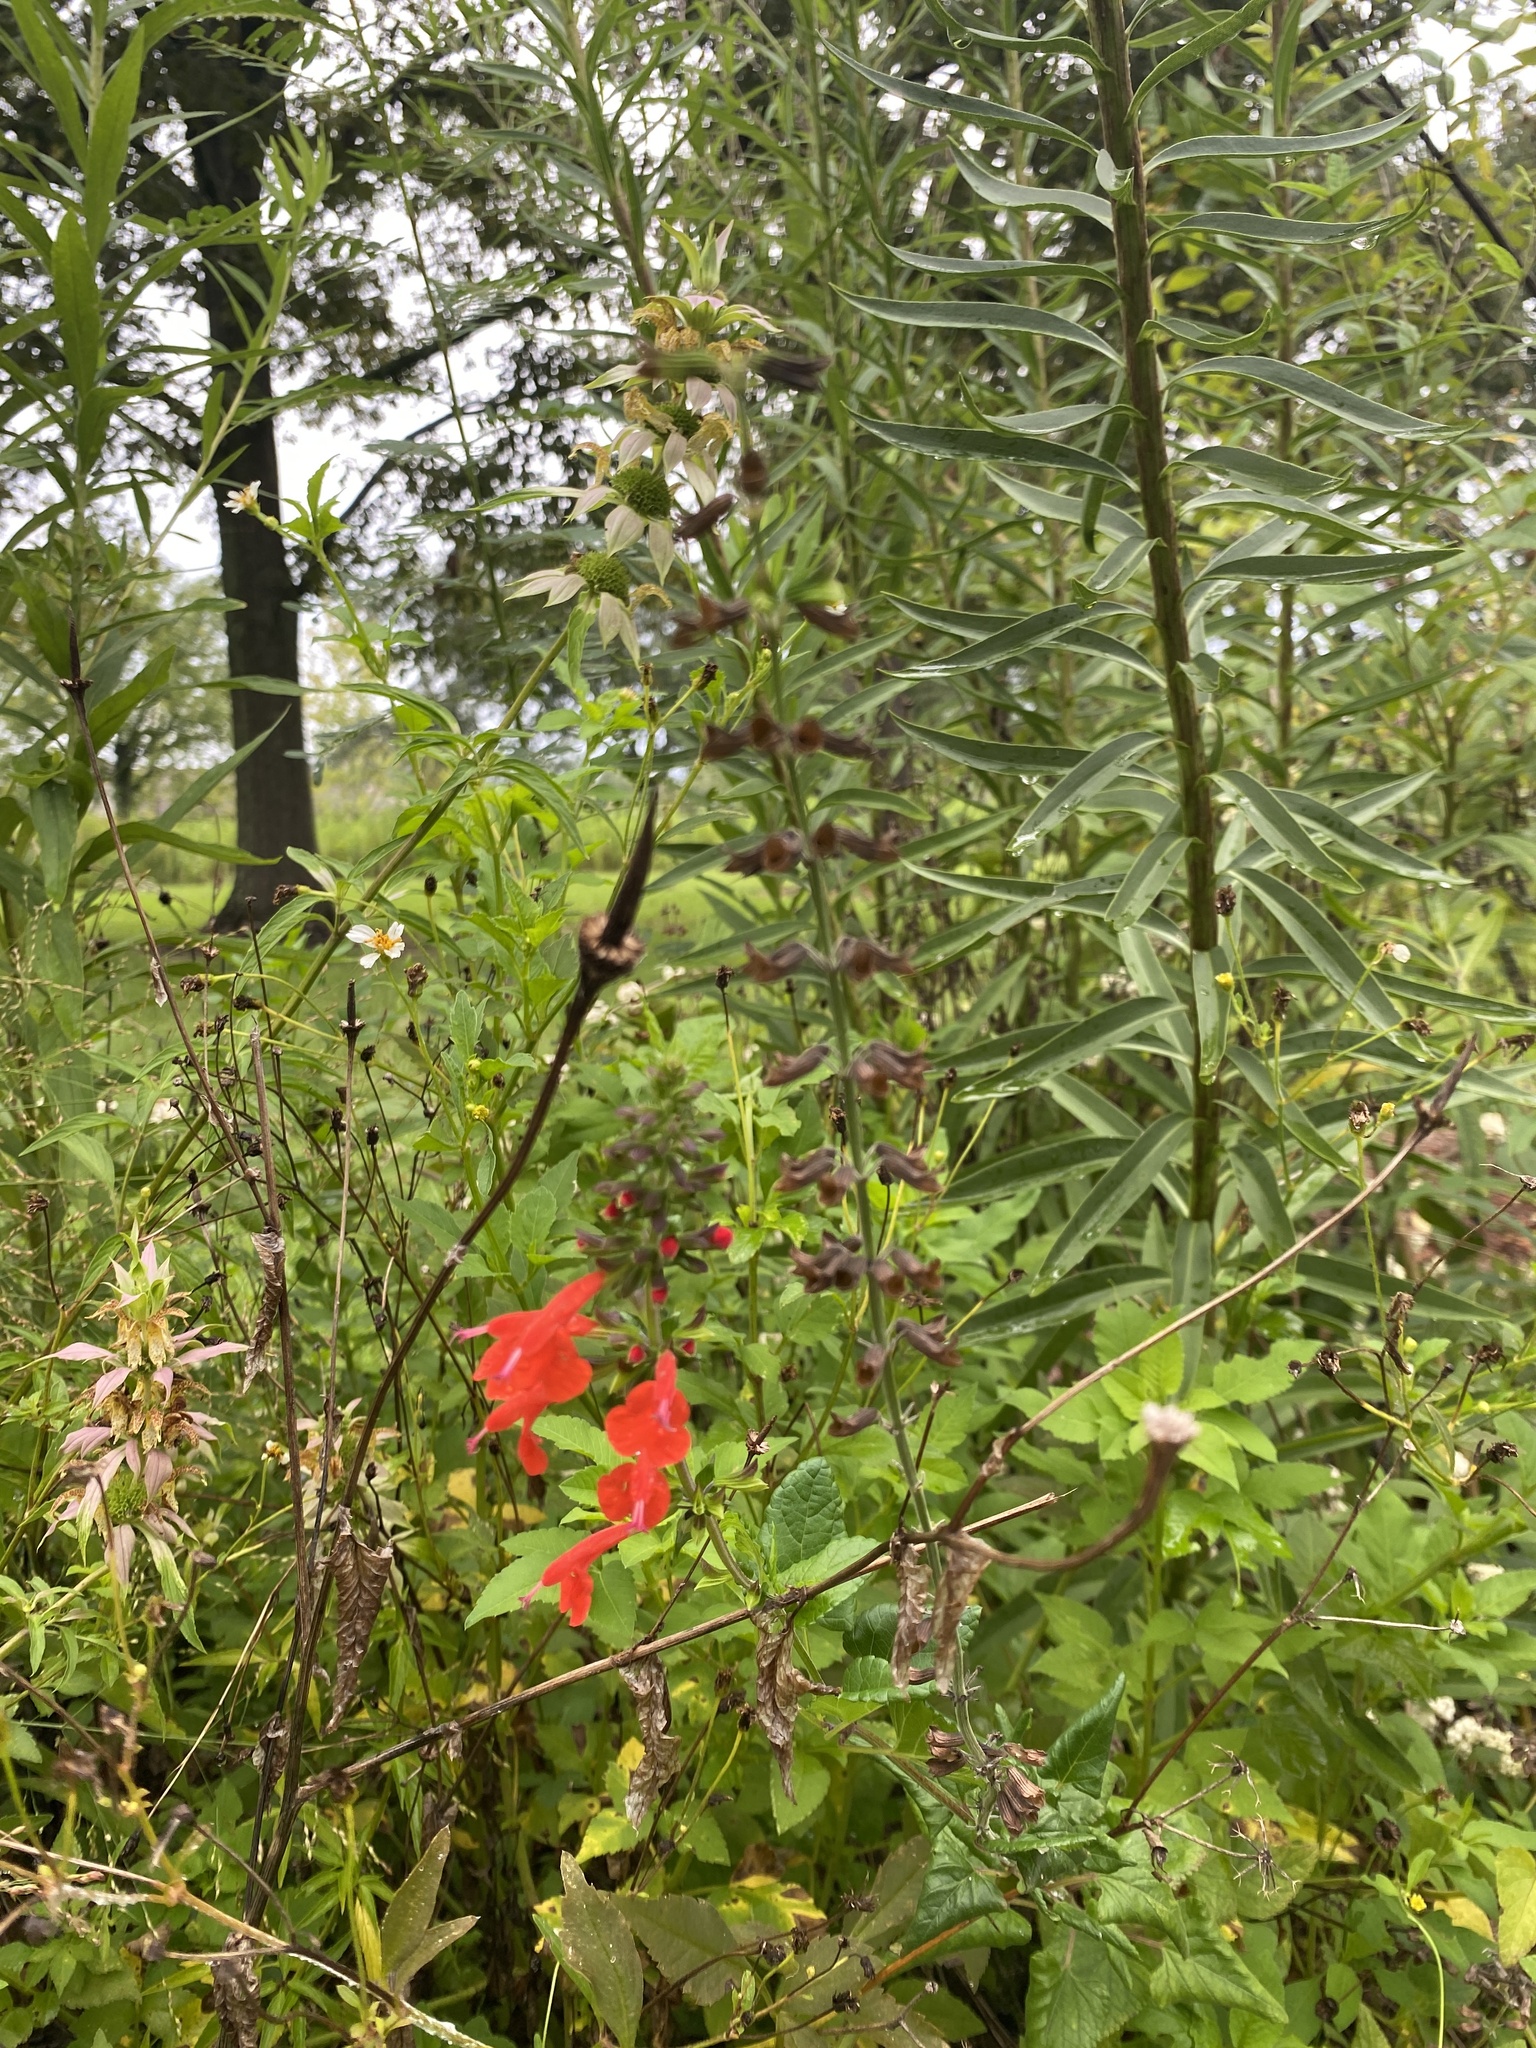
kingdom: Plantae
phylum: Tracheophyta
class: Magnoliopsida
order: Lamiales
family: Lamiaceae
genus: Salvia
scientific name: Salvia coccinea
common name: Blood sage
